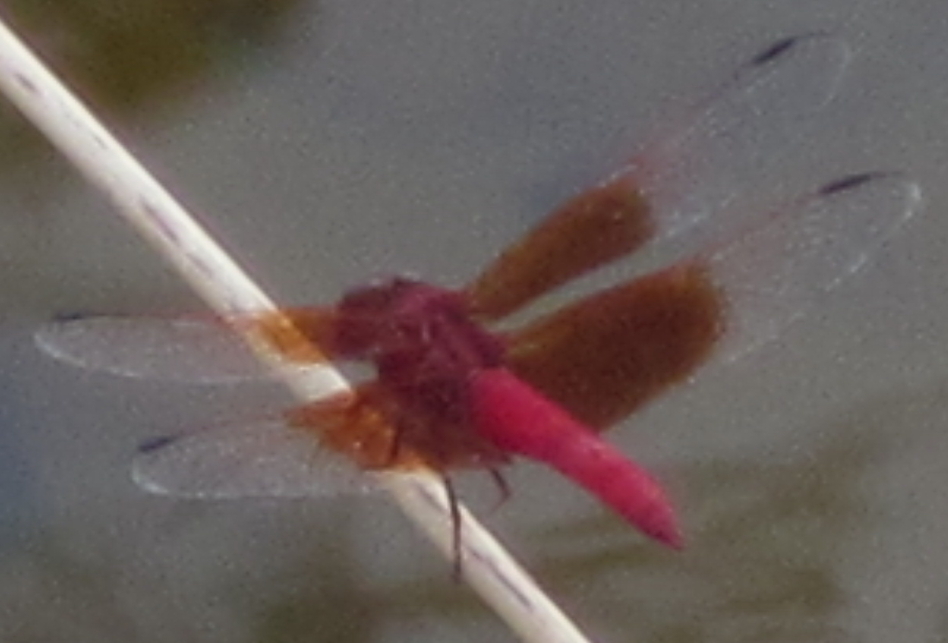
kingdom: Animalia
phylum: Arthropoda
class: Insecta
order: Odonata
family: Libellulidae
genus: Brachythemis
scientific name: Brachythemis lacustris
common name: Red groundling
